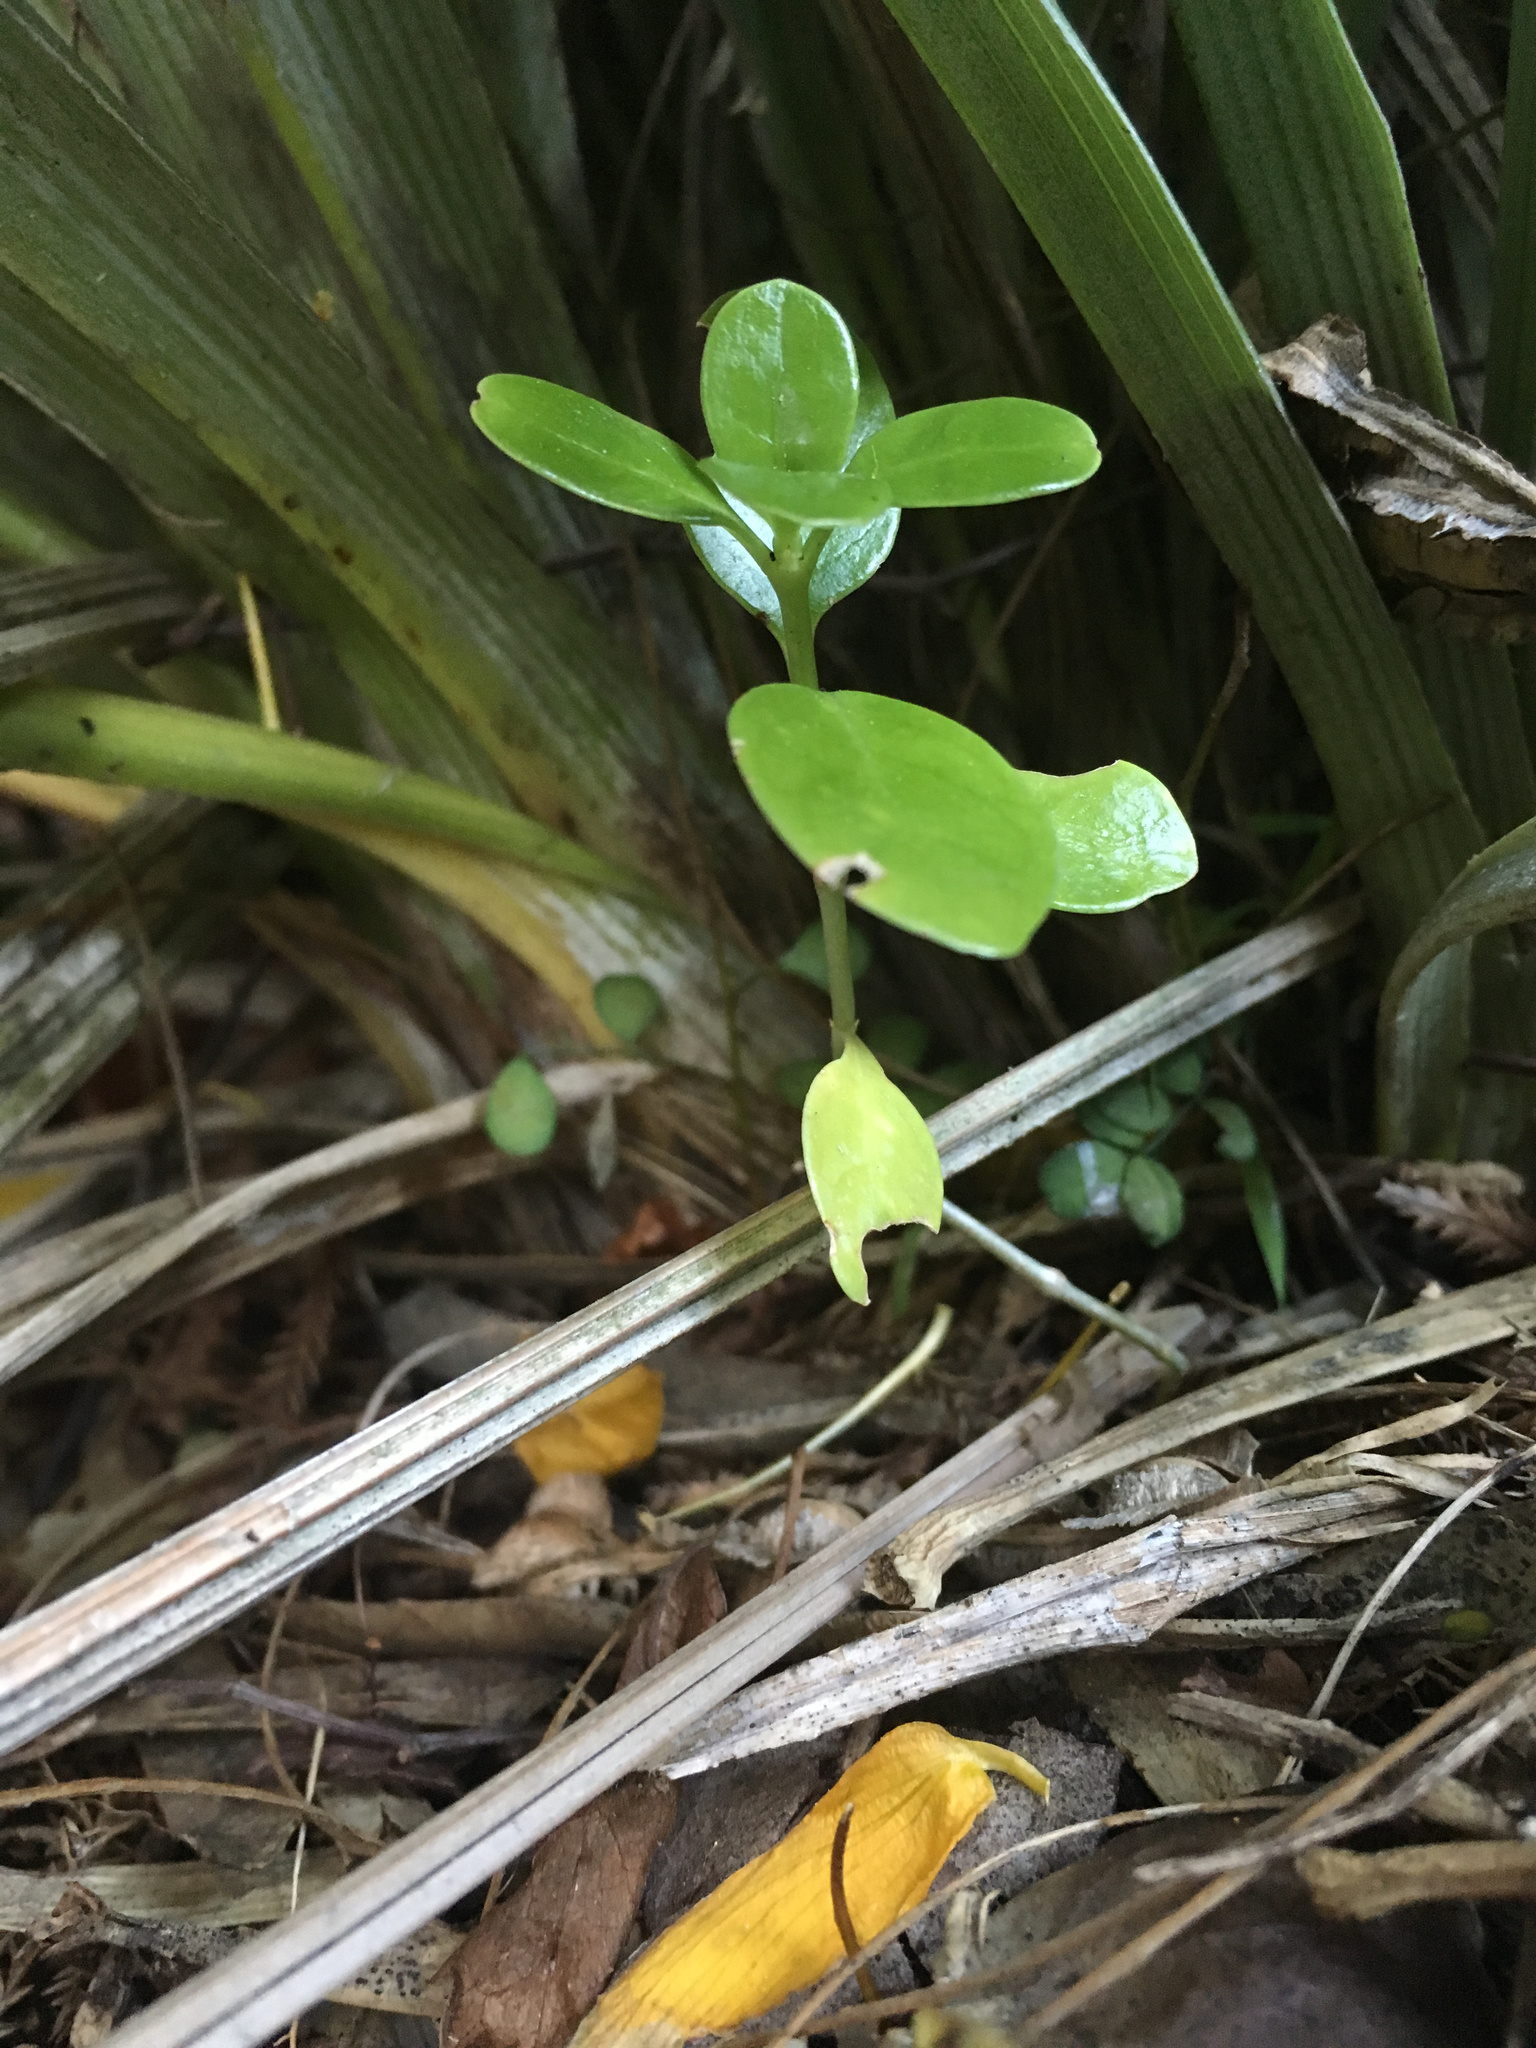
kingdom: Plantae
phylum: Tracheophyta
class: Magnoliopsida
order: Gentianales
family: Rubiaceae
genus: Coprosma
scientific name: Coprosma repens
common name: Tree bedstraw
